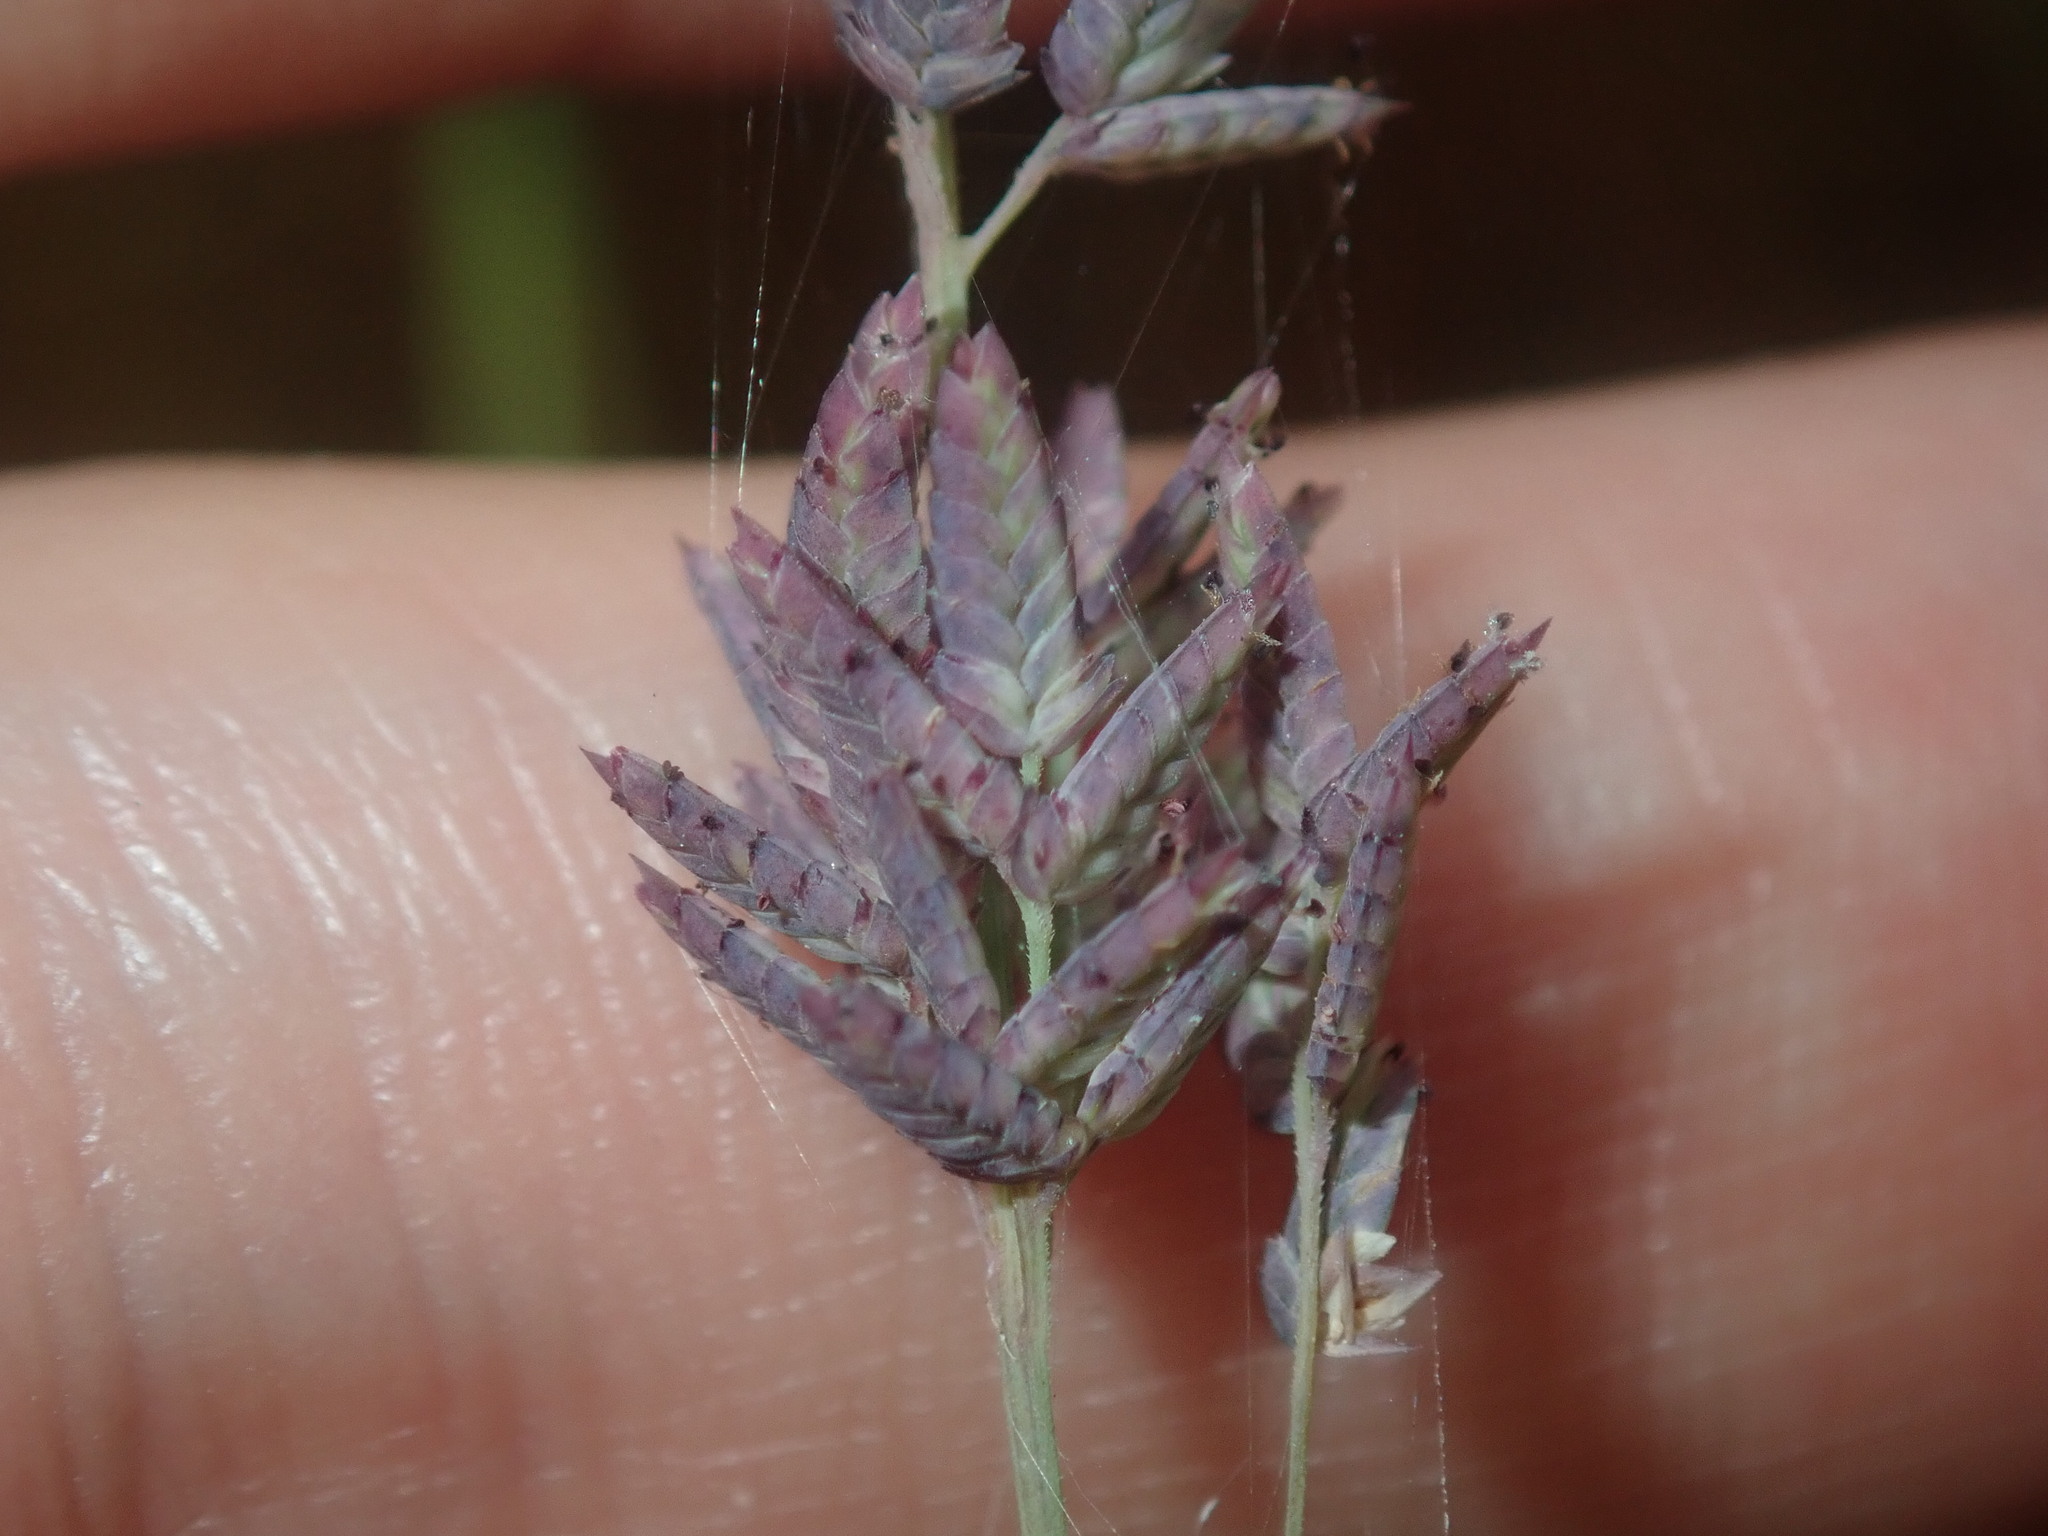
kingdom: Plantae
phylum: Tracheophyta
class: Liliopsida
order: Poales
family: Poaceae
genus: Eragrostis
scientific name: Eragrostis elongata
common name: Long lovegrass
